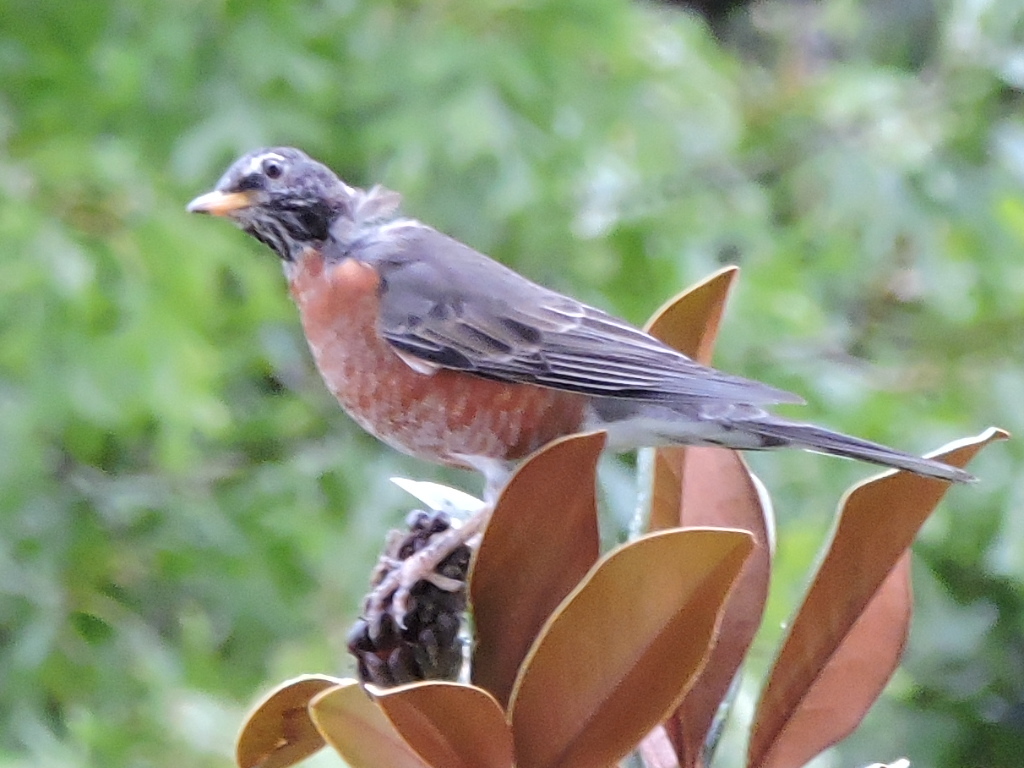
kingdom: Animalia
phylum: Chordata
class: Aves
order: Passeriformes
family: Turdidae
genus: Turdus
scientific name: Turdus migratorius
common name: American robin
